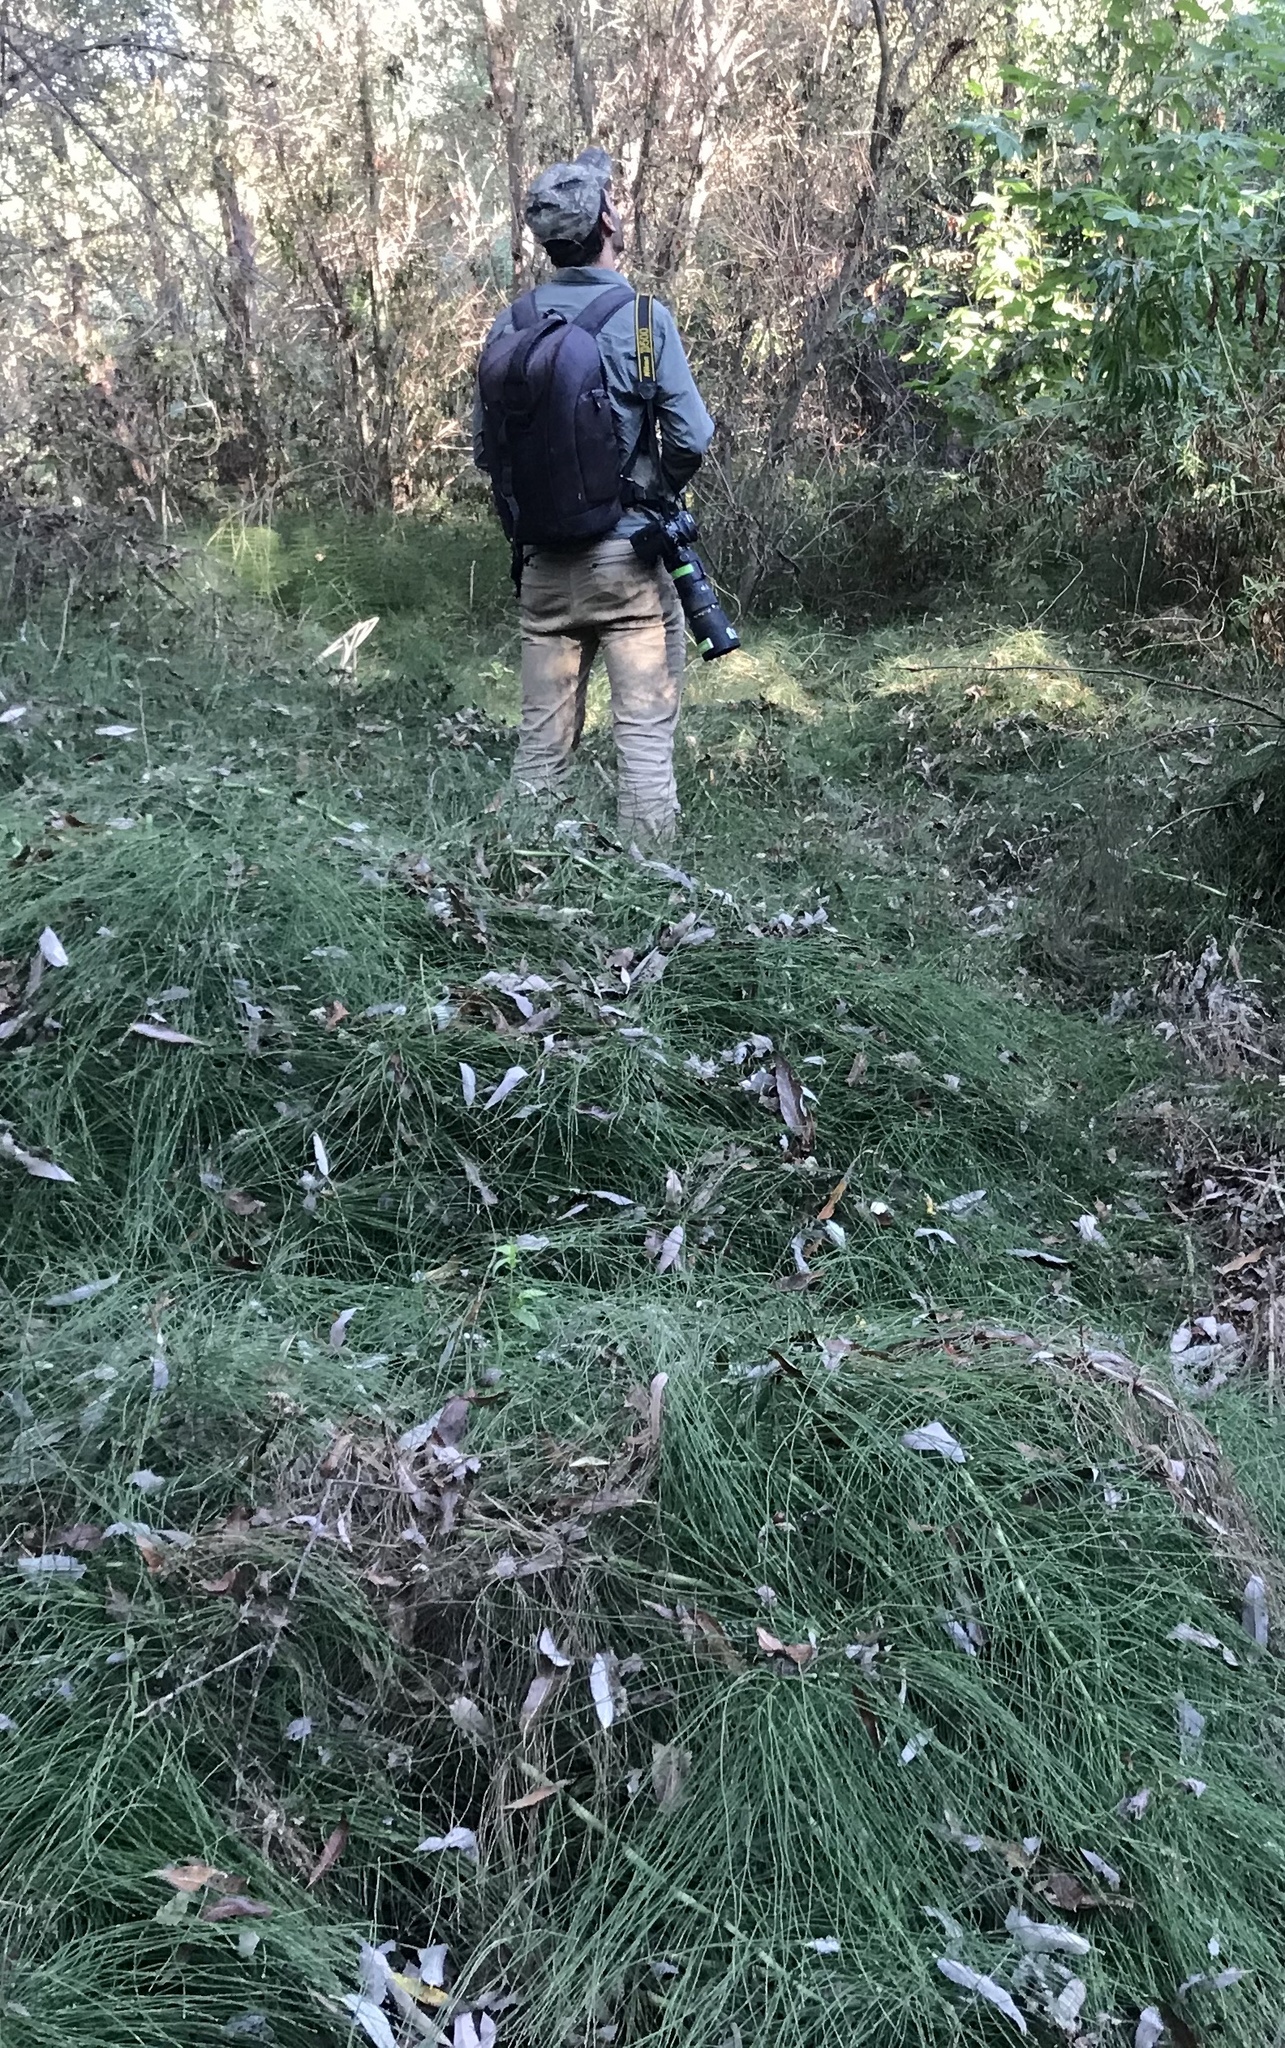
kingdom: Plantae
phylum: Tracheophyta
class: Polypodiopsida
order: Equisetales
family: Equisetaceae
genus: Equisetum
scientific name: Equisetum telmateia
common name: Great horsetail
